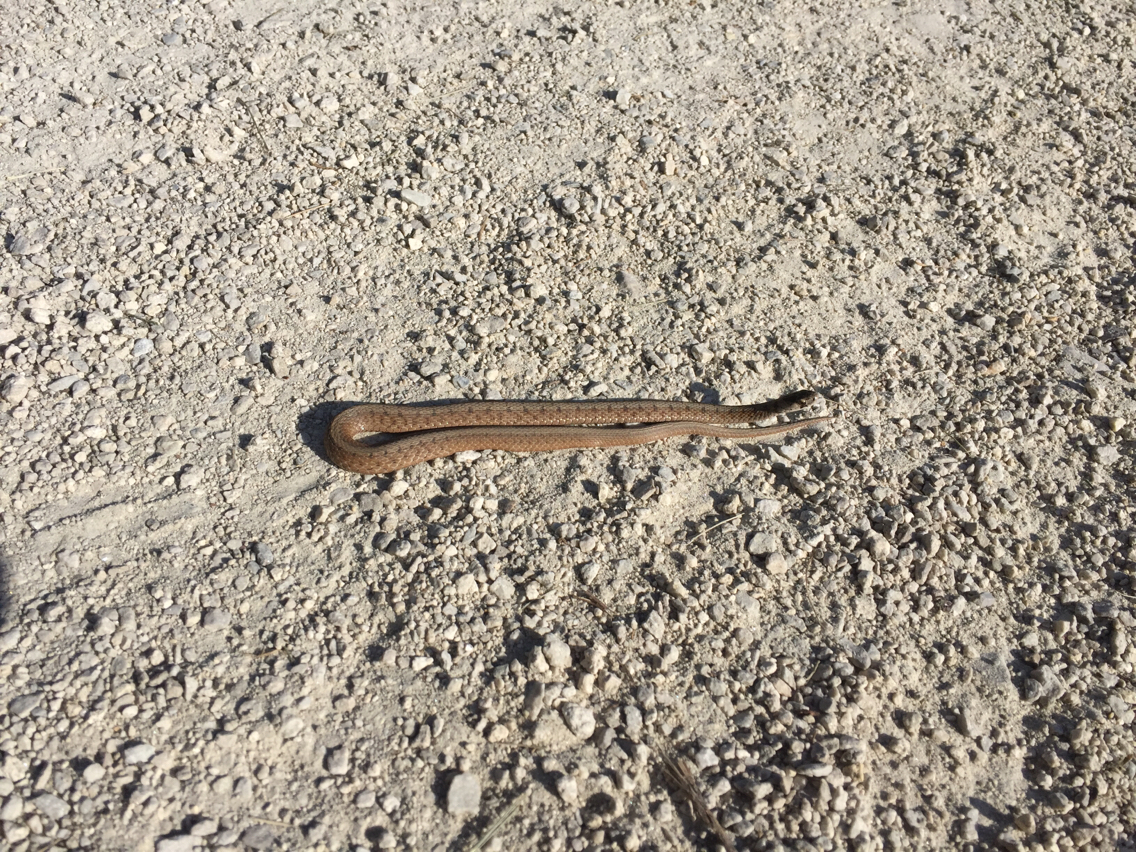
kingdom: Animalia
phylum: Chordata
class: Squamata
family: Colubridae
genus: Storeria
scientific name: Storeria dekayi
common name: (dekay’s) brown snake
